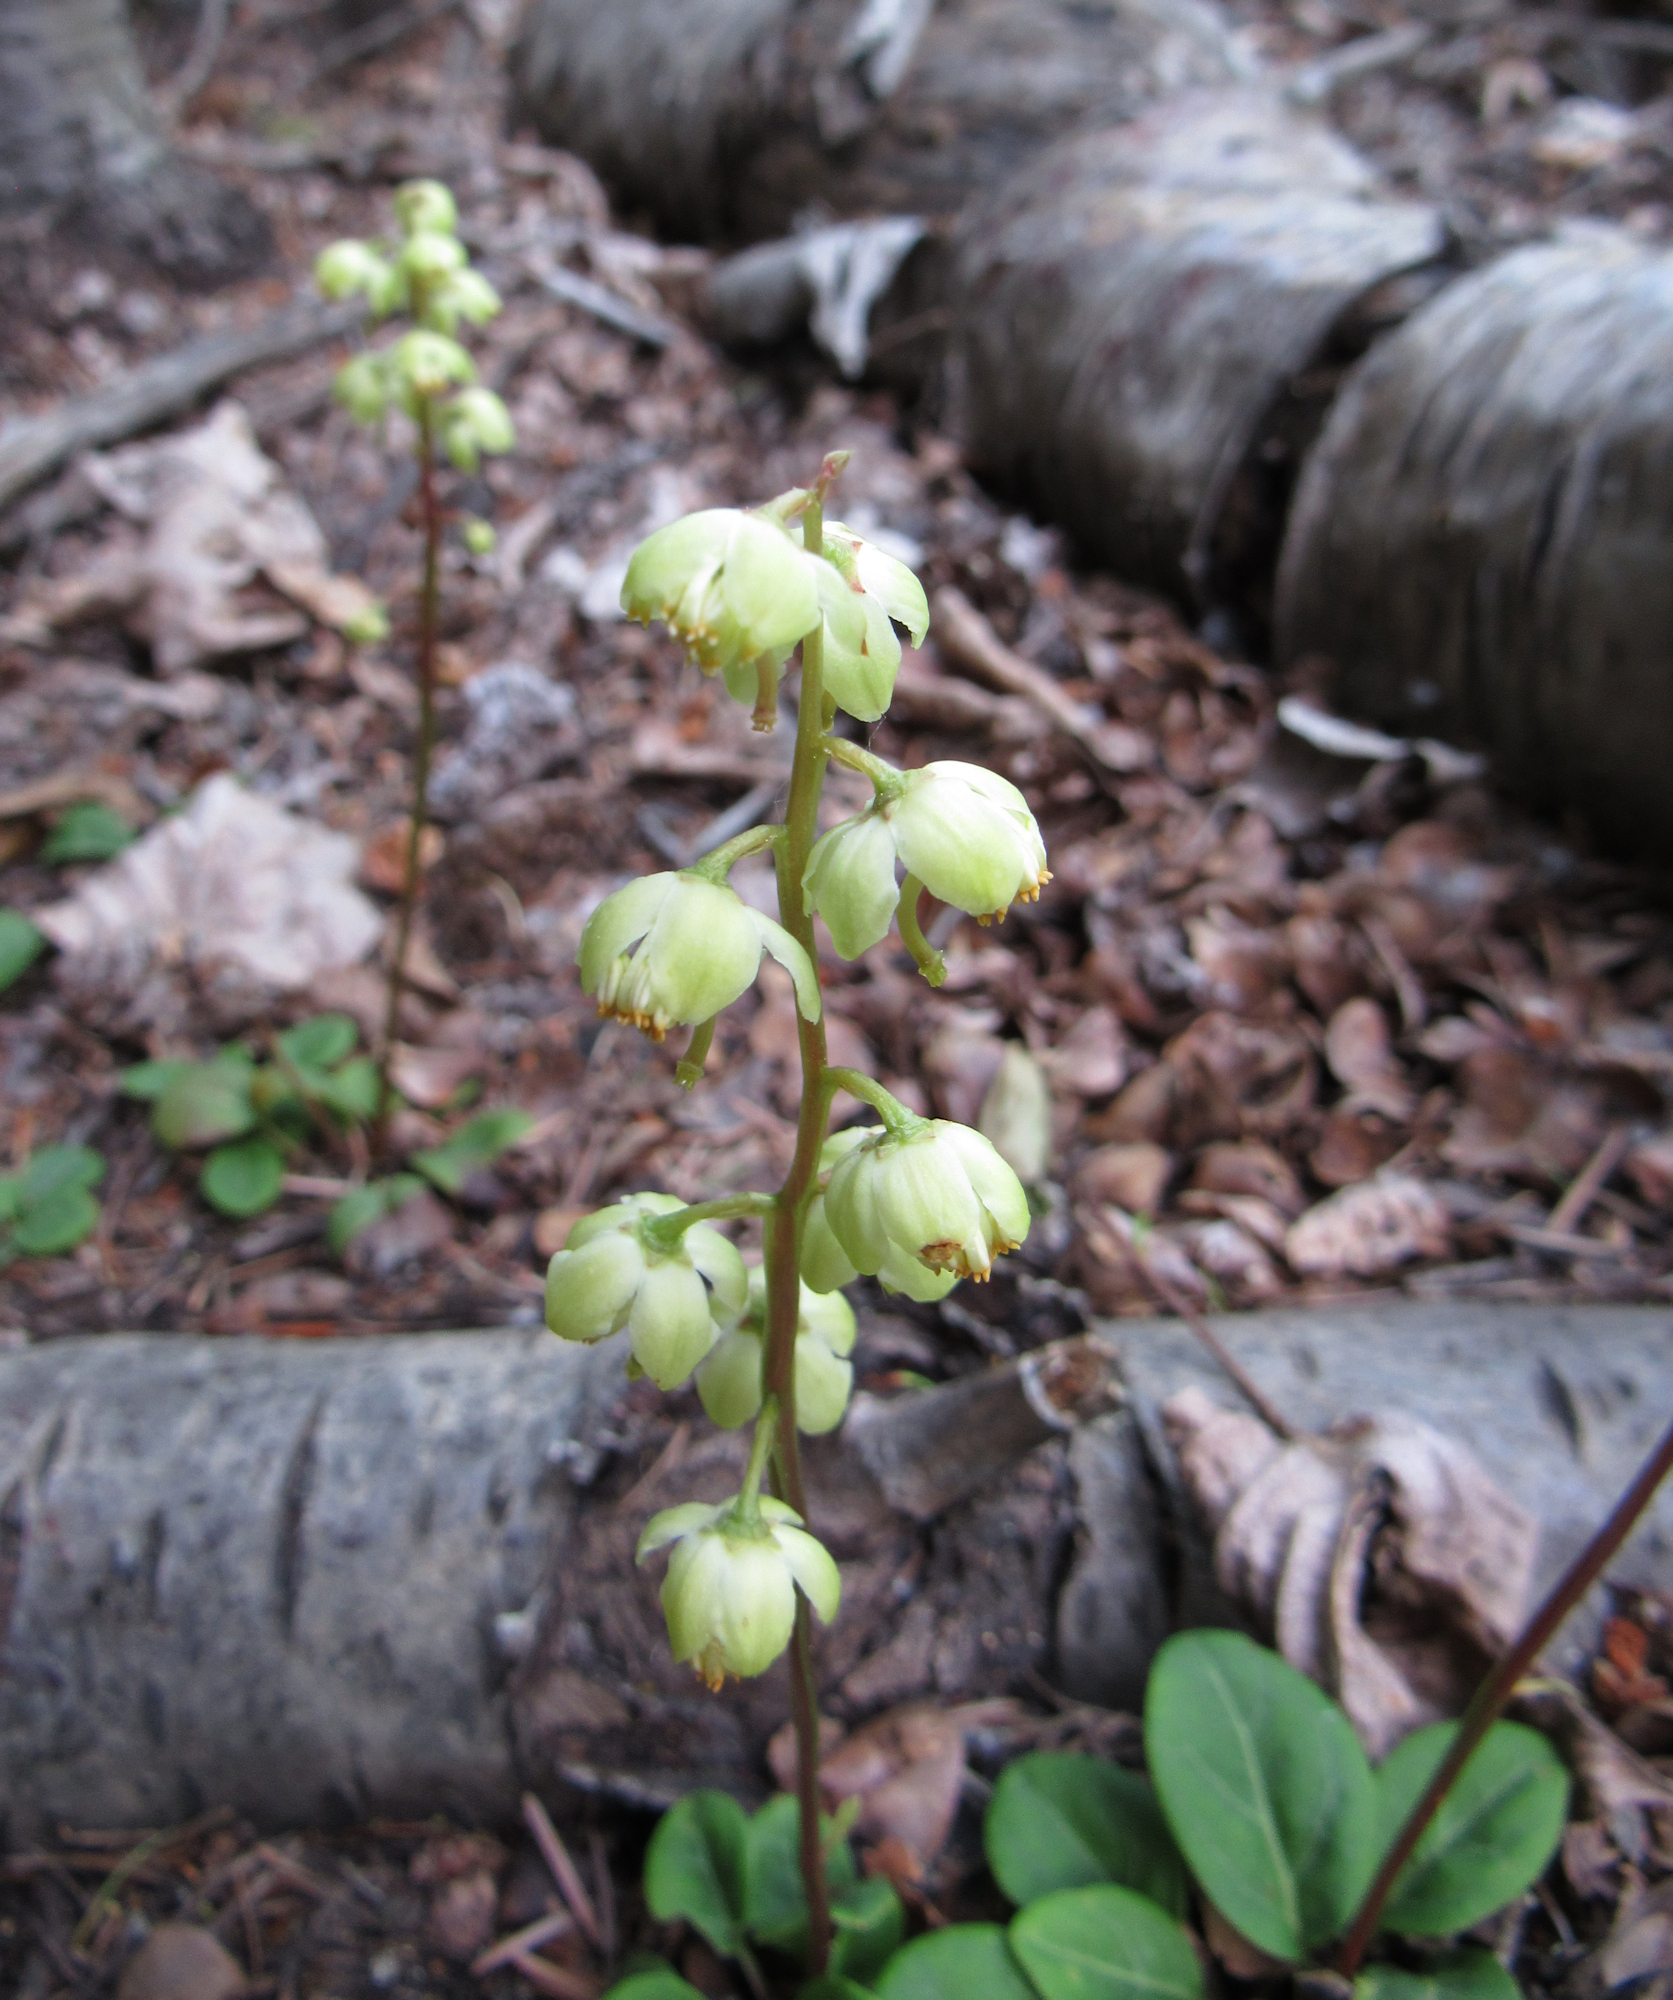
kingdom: Plantae
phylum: Tracheophyta
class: Magnoliopsida
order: Ericales
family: Ericaceae
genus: Pyrola
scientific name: Pyrola chlorantha
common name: Green wintergreen
